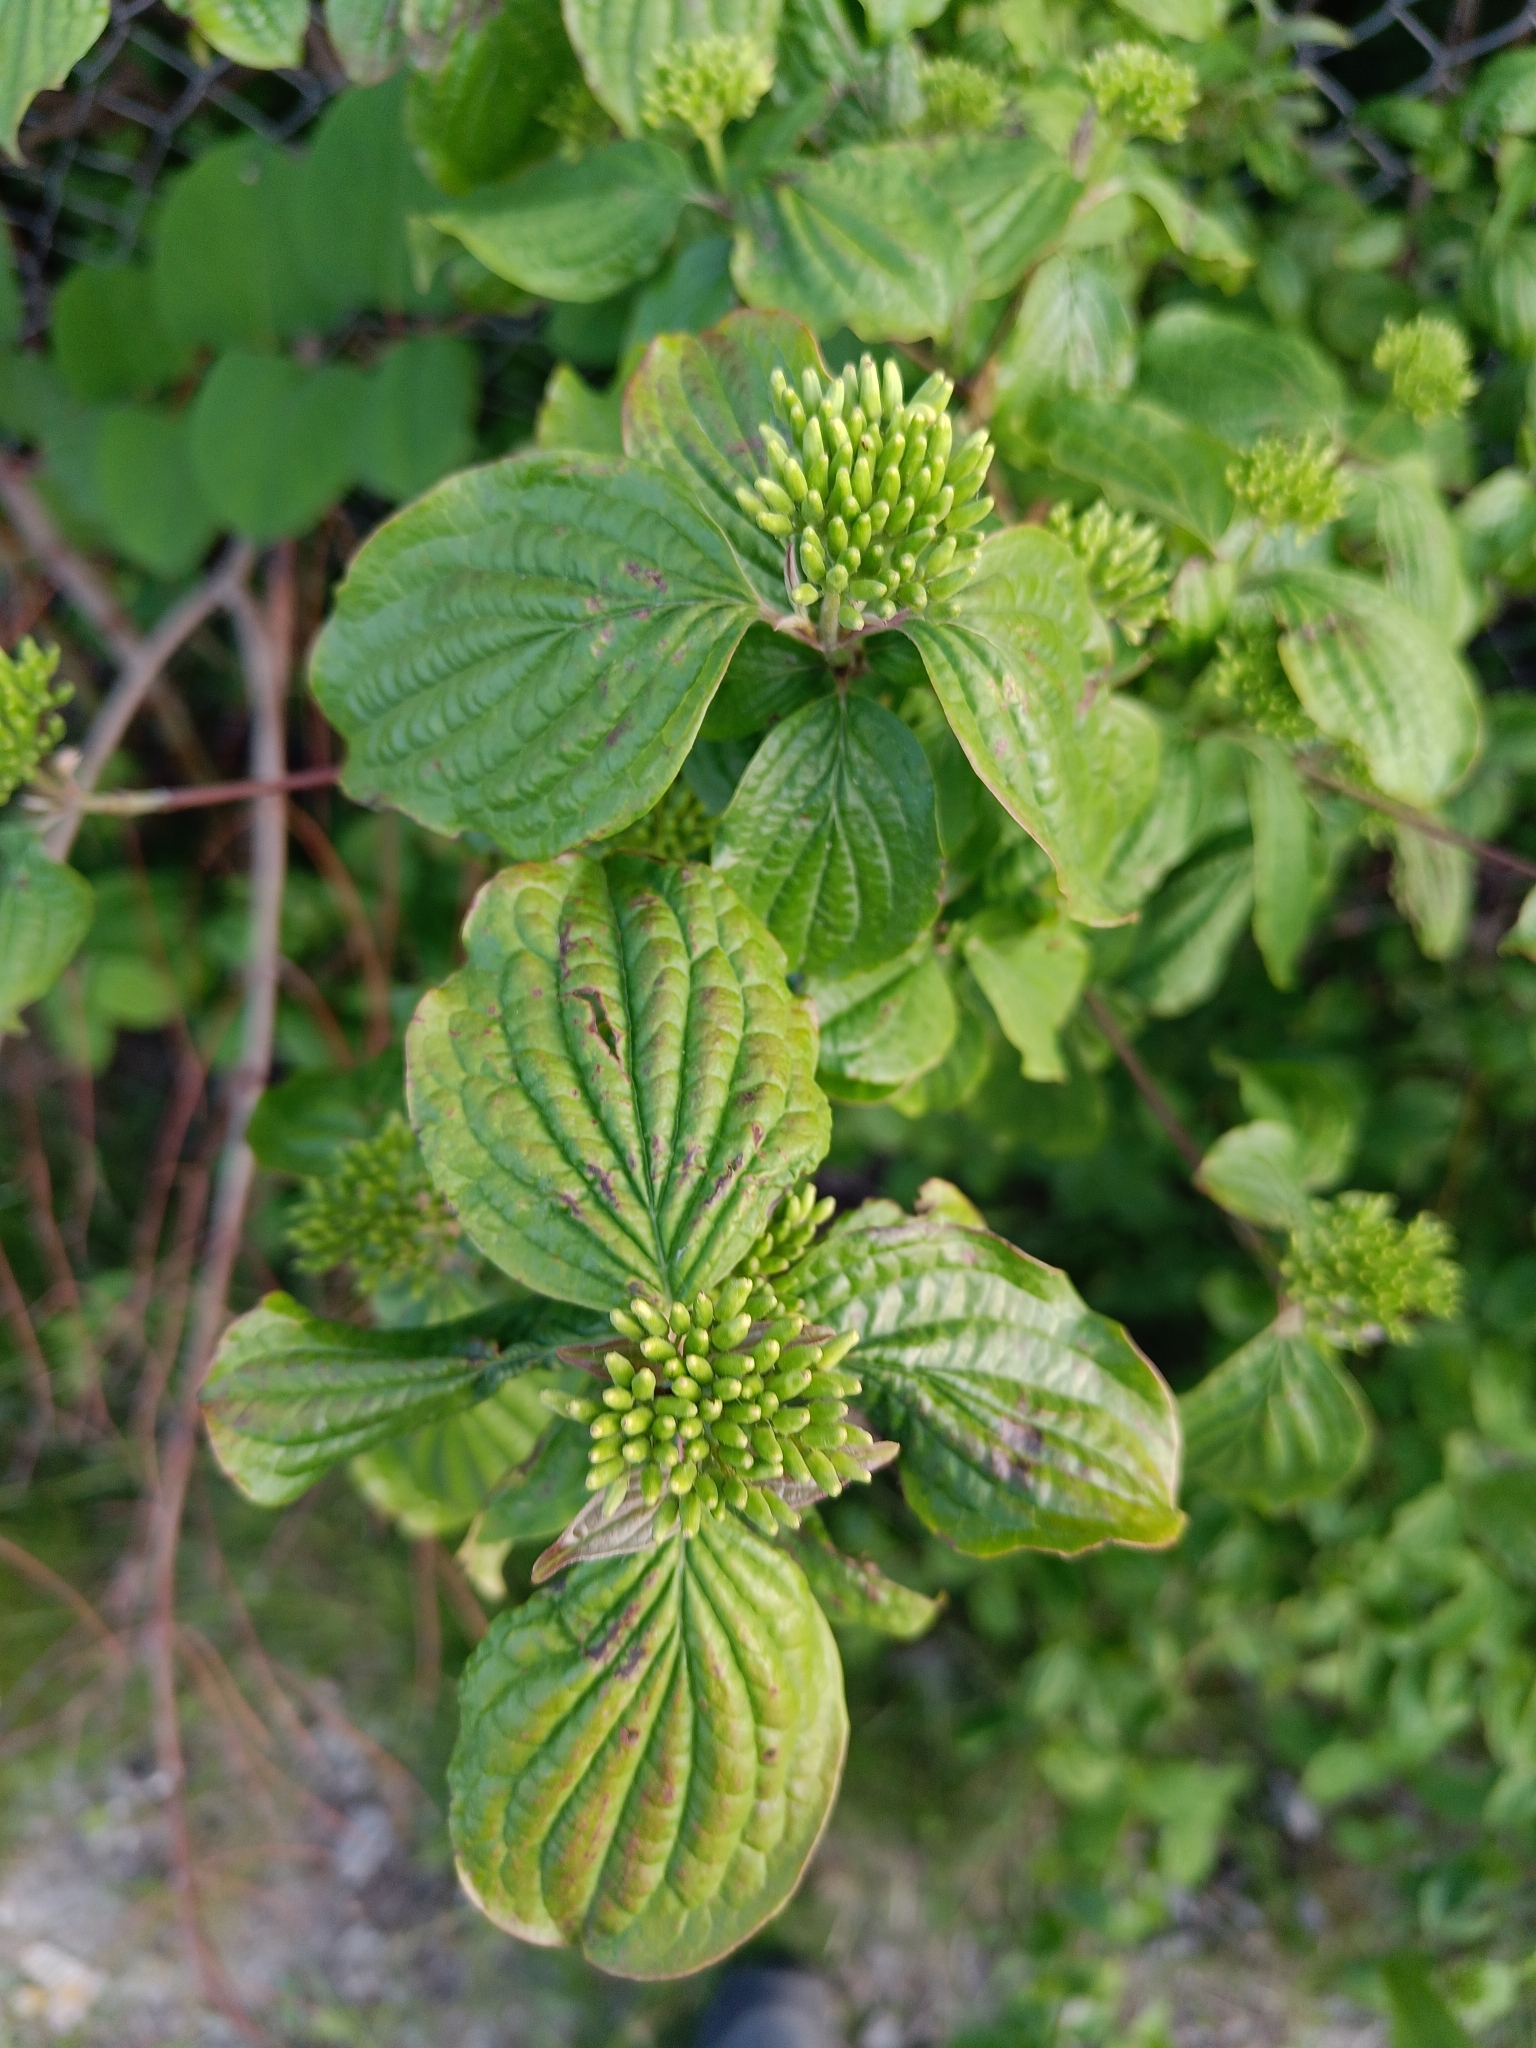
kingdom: Plantae
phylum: Tracheophyta
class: Magnoliopsida
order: Cornales
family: Cornaceae
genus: Cornus
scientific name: Cornus sanguinea
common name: Dogwood
